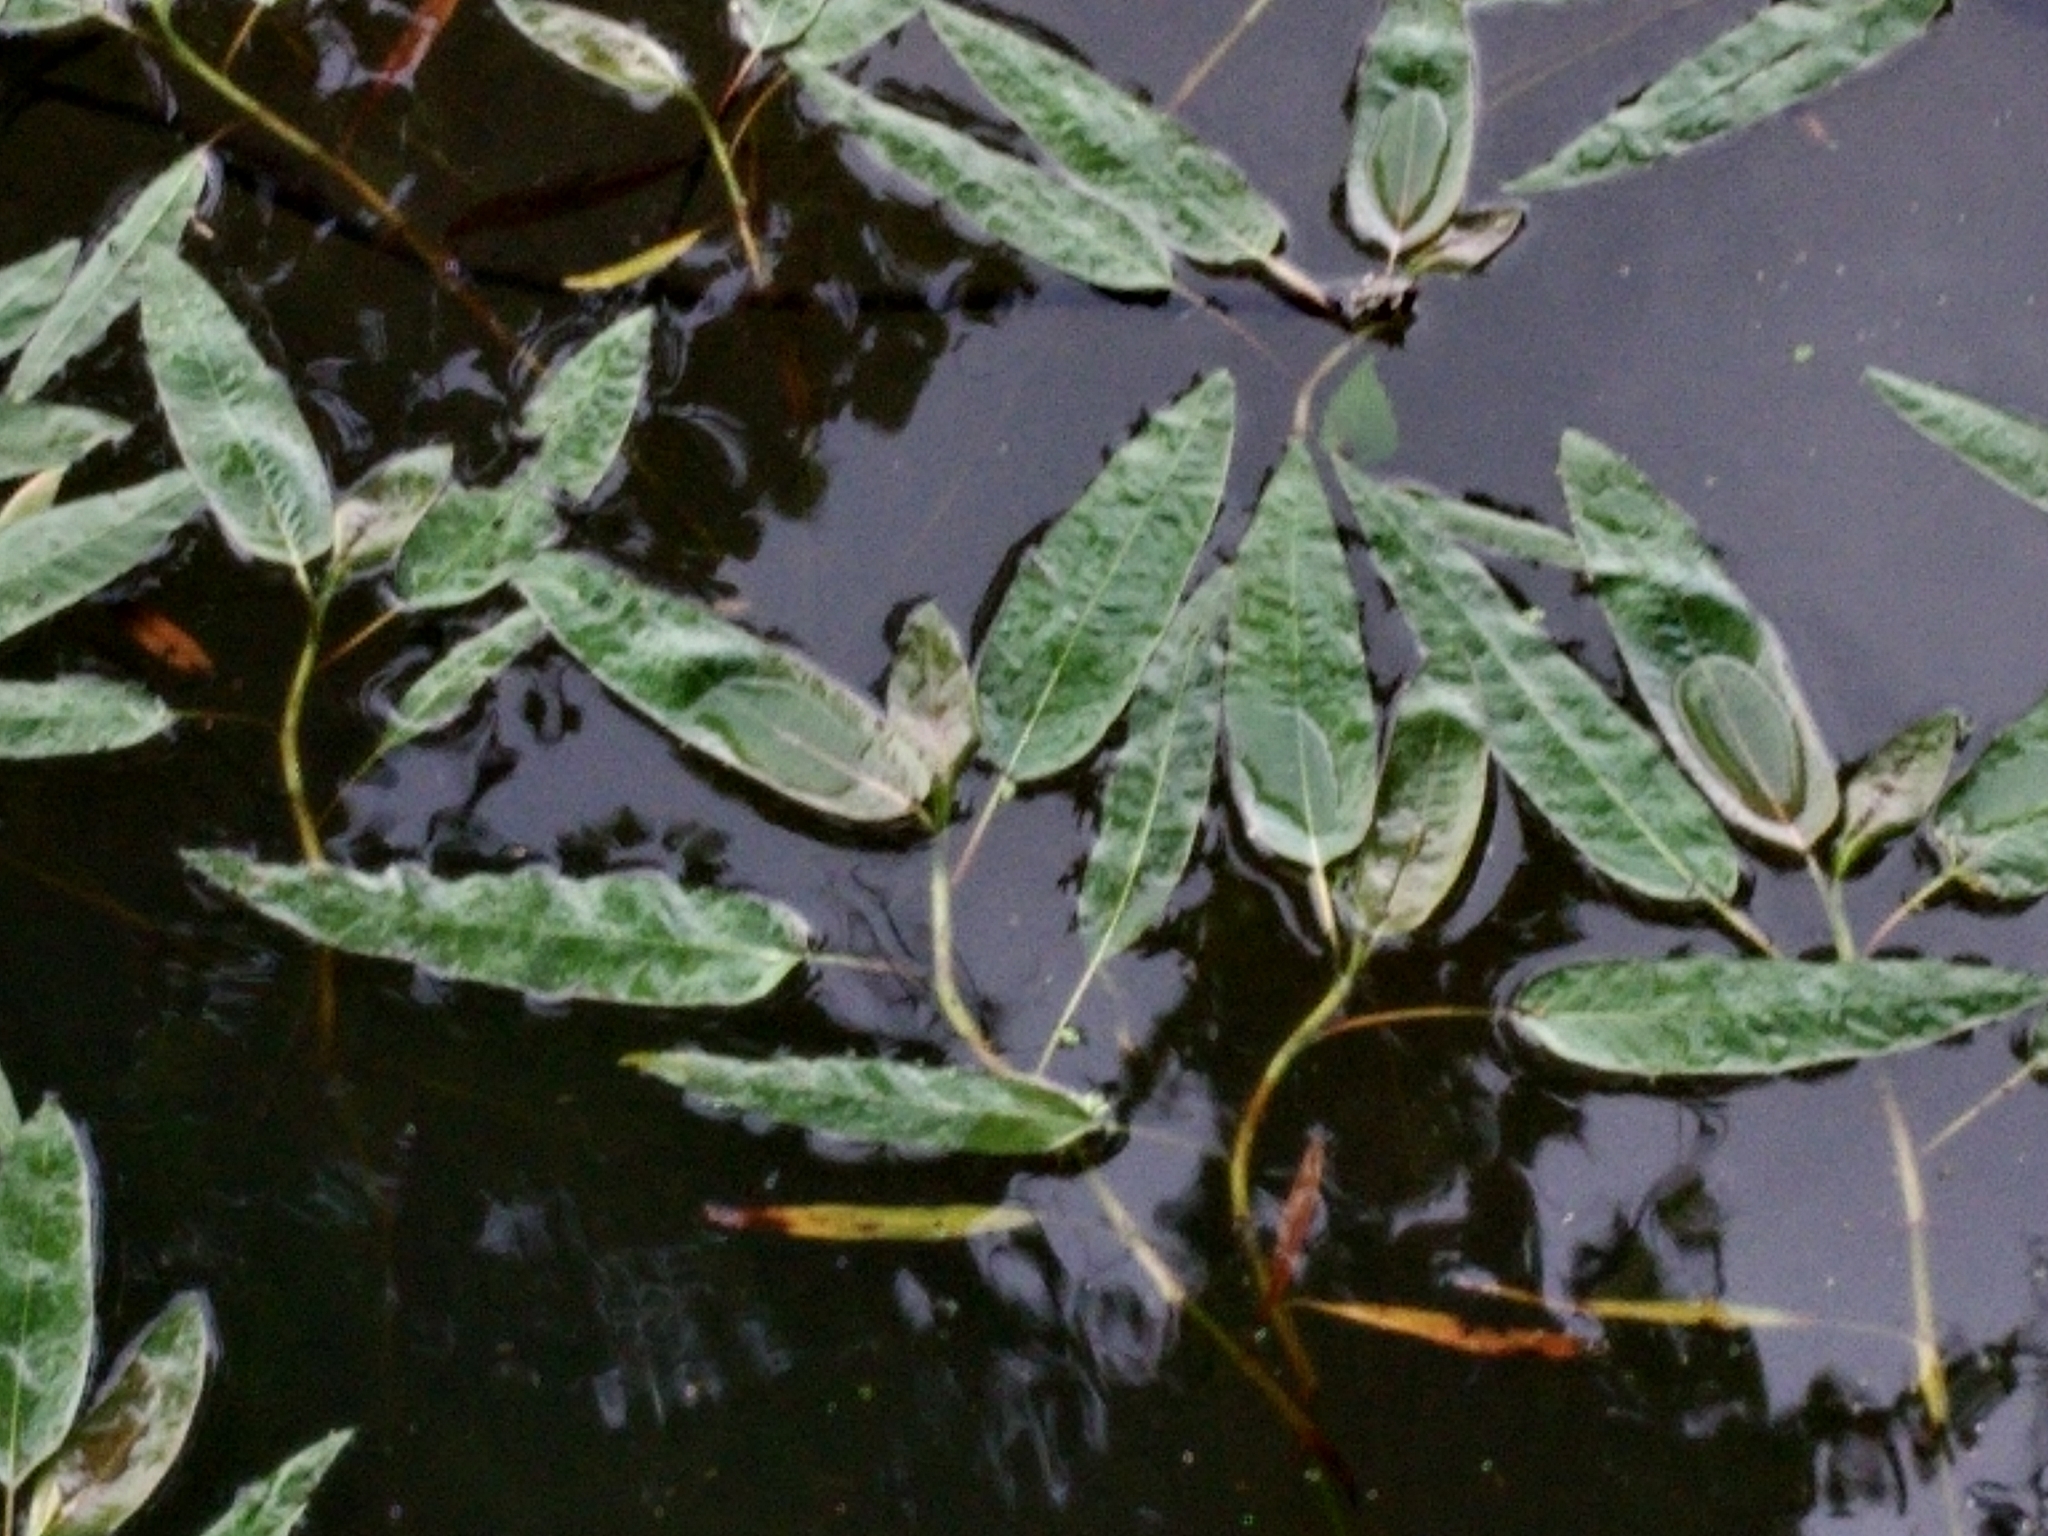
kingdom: Plantae
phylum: Tracheophyta
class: Magnoliopsida
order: Caryophyllales
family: Polygonaceae
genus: Persicaria
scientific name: Persicaria amphibia
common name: Amphibious bistort
